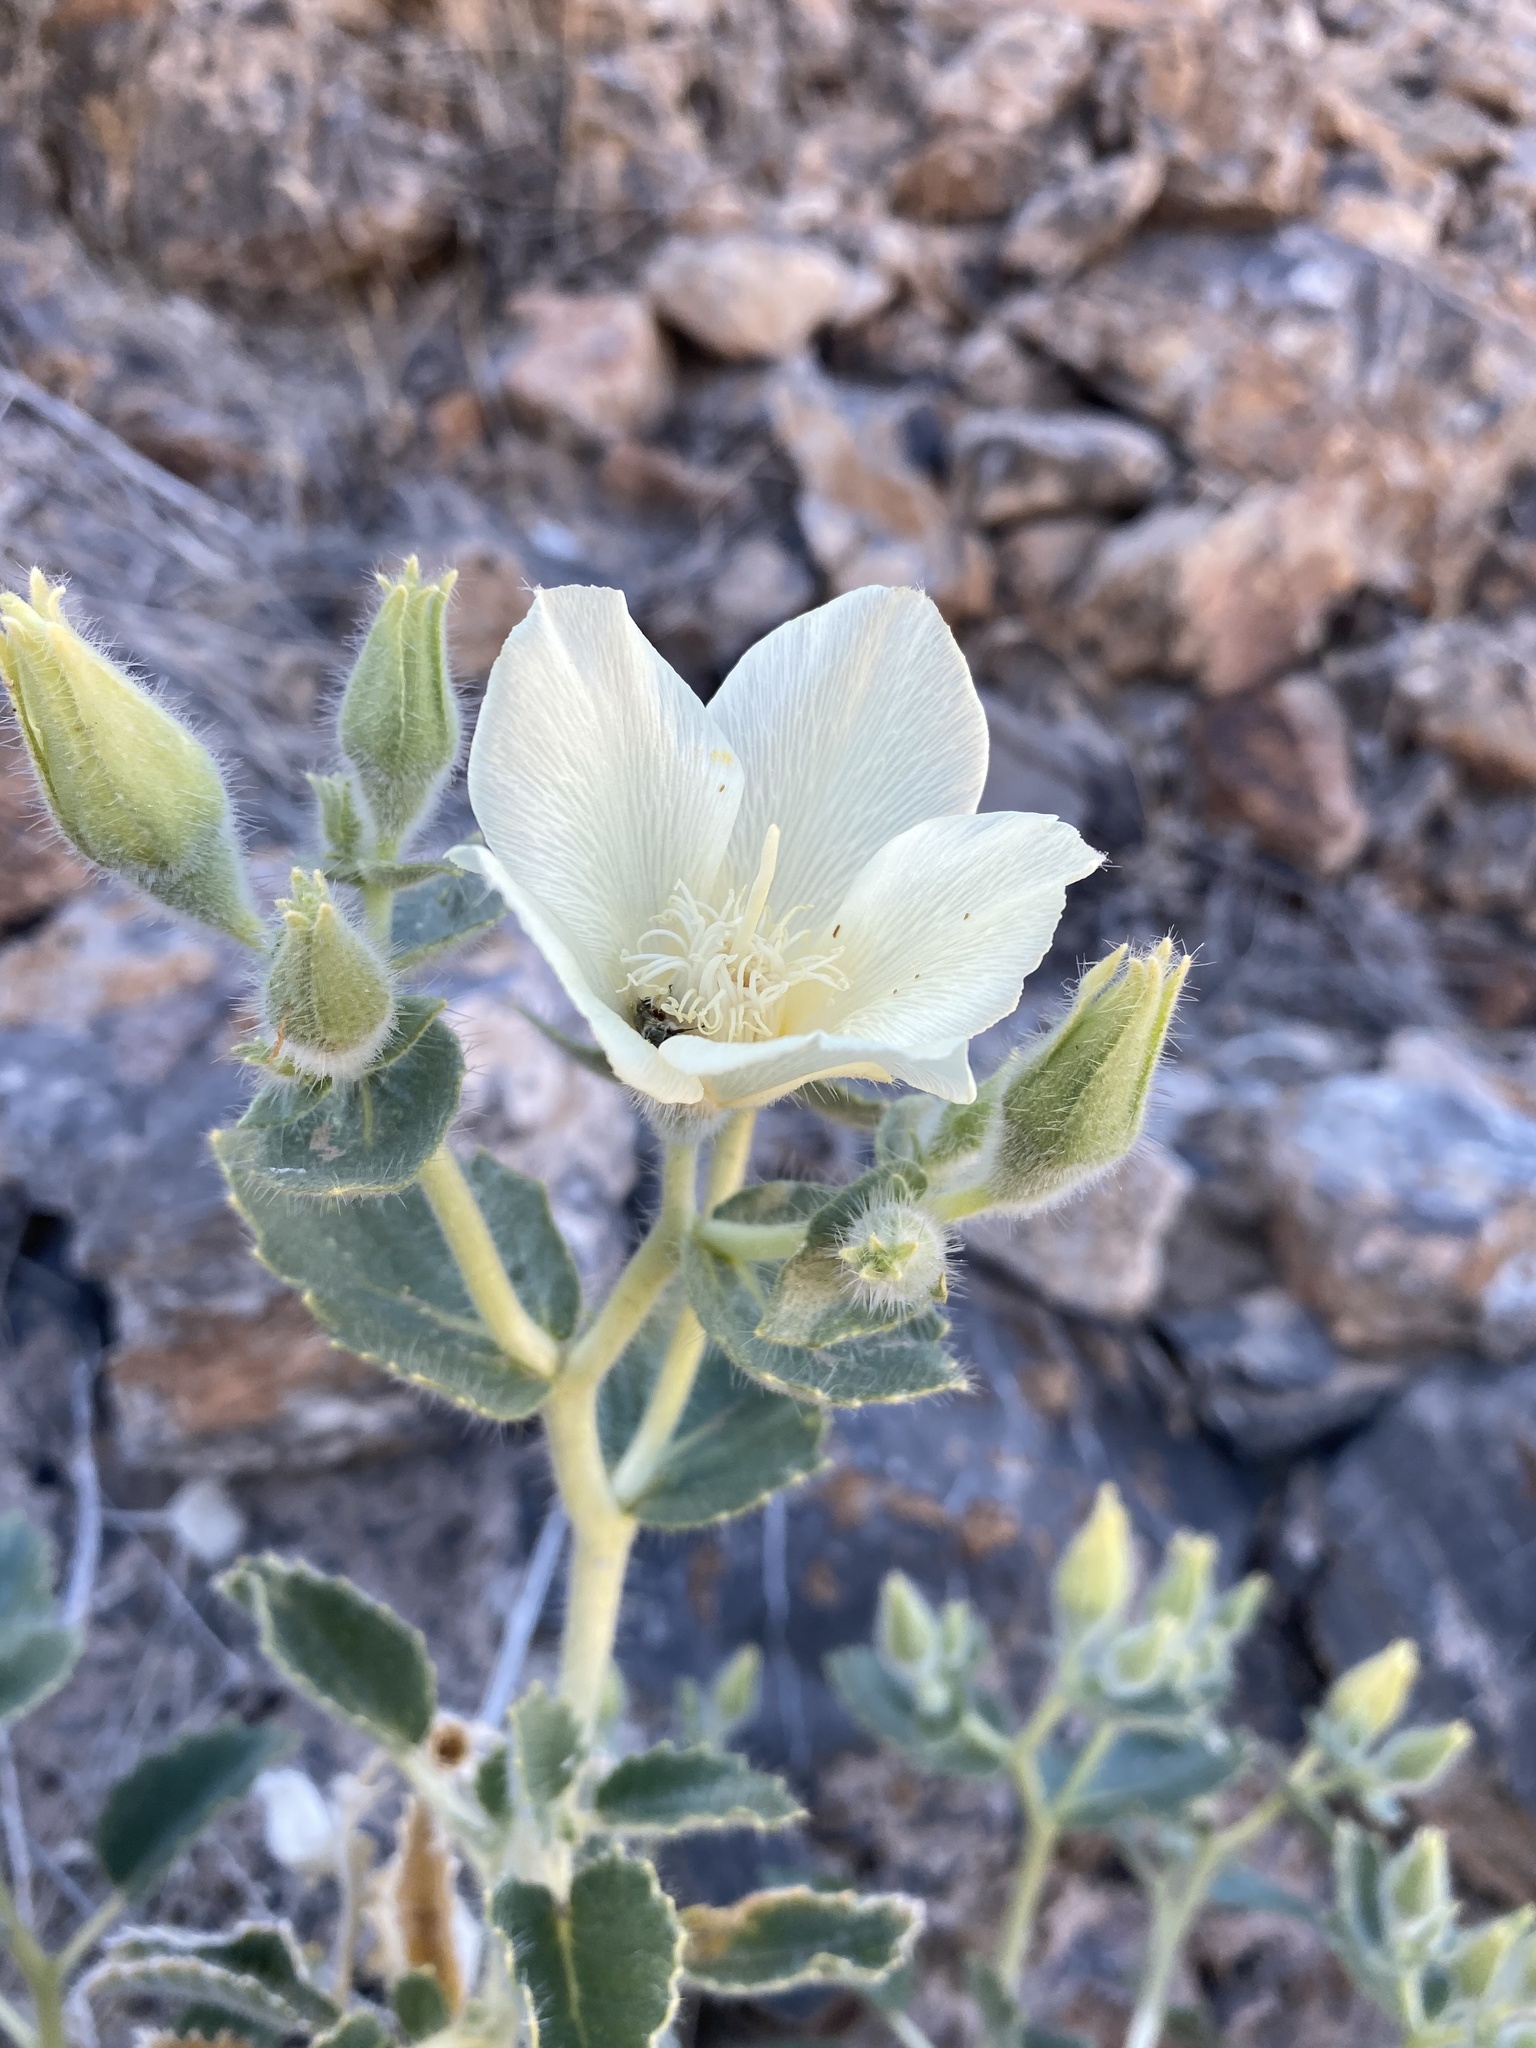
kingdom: Plantae
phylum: Tracheophyta
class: Magnoliopsida
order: Cornales
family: Loasaceae
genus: Eucnide
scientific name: Eucnide urens
